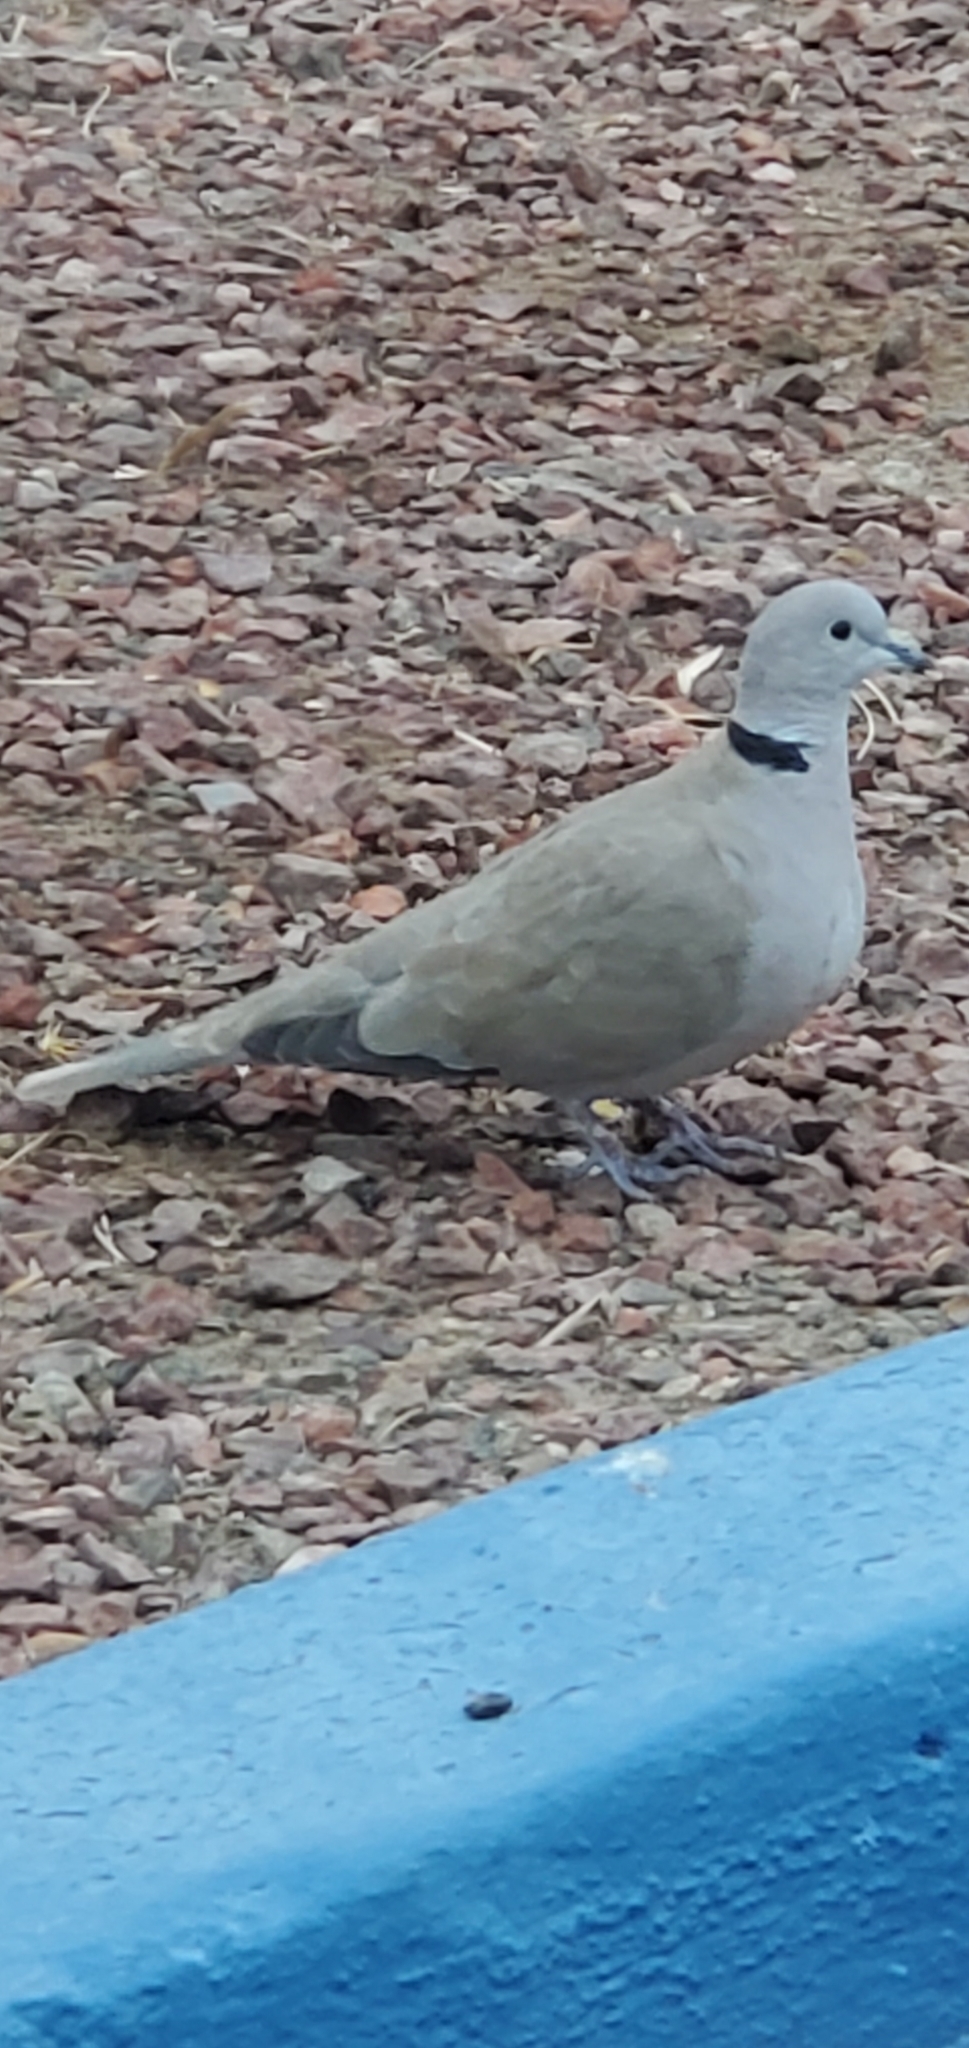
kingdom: Animalia
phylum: Chordata
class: Aves
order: Columbiformes
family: Columbidae
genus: Streptopelia
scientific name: Streptopelia decaocto
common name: Eurasian collared dove
